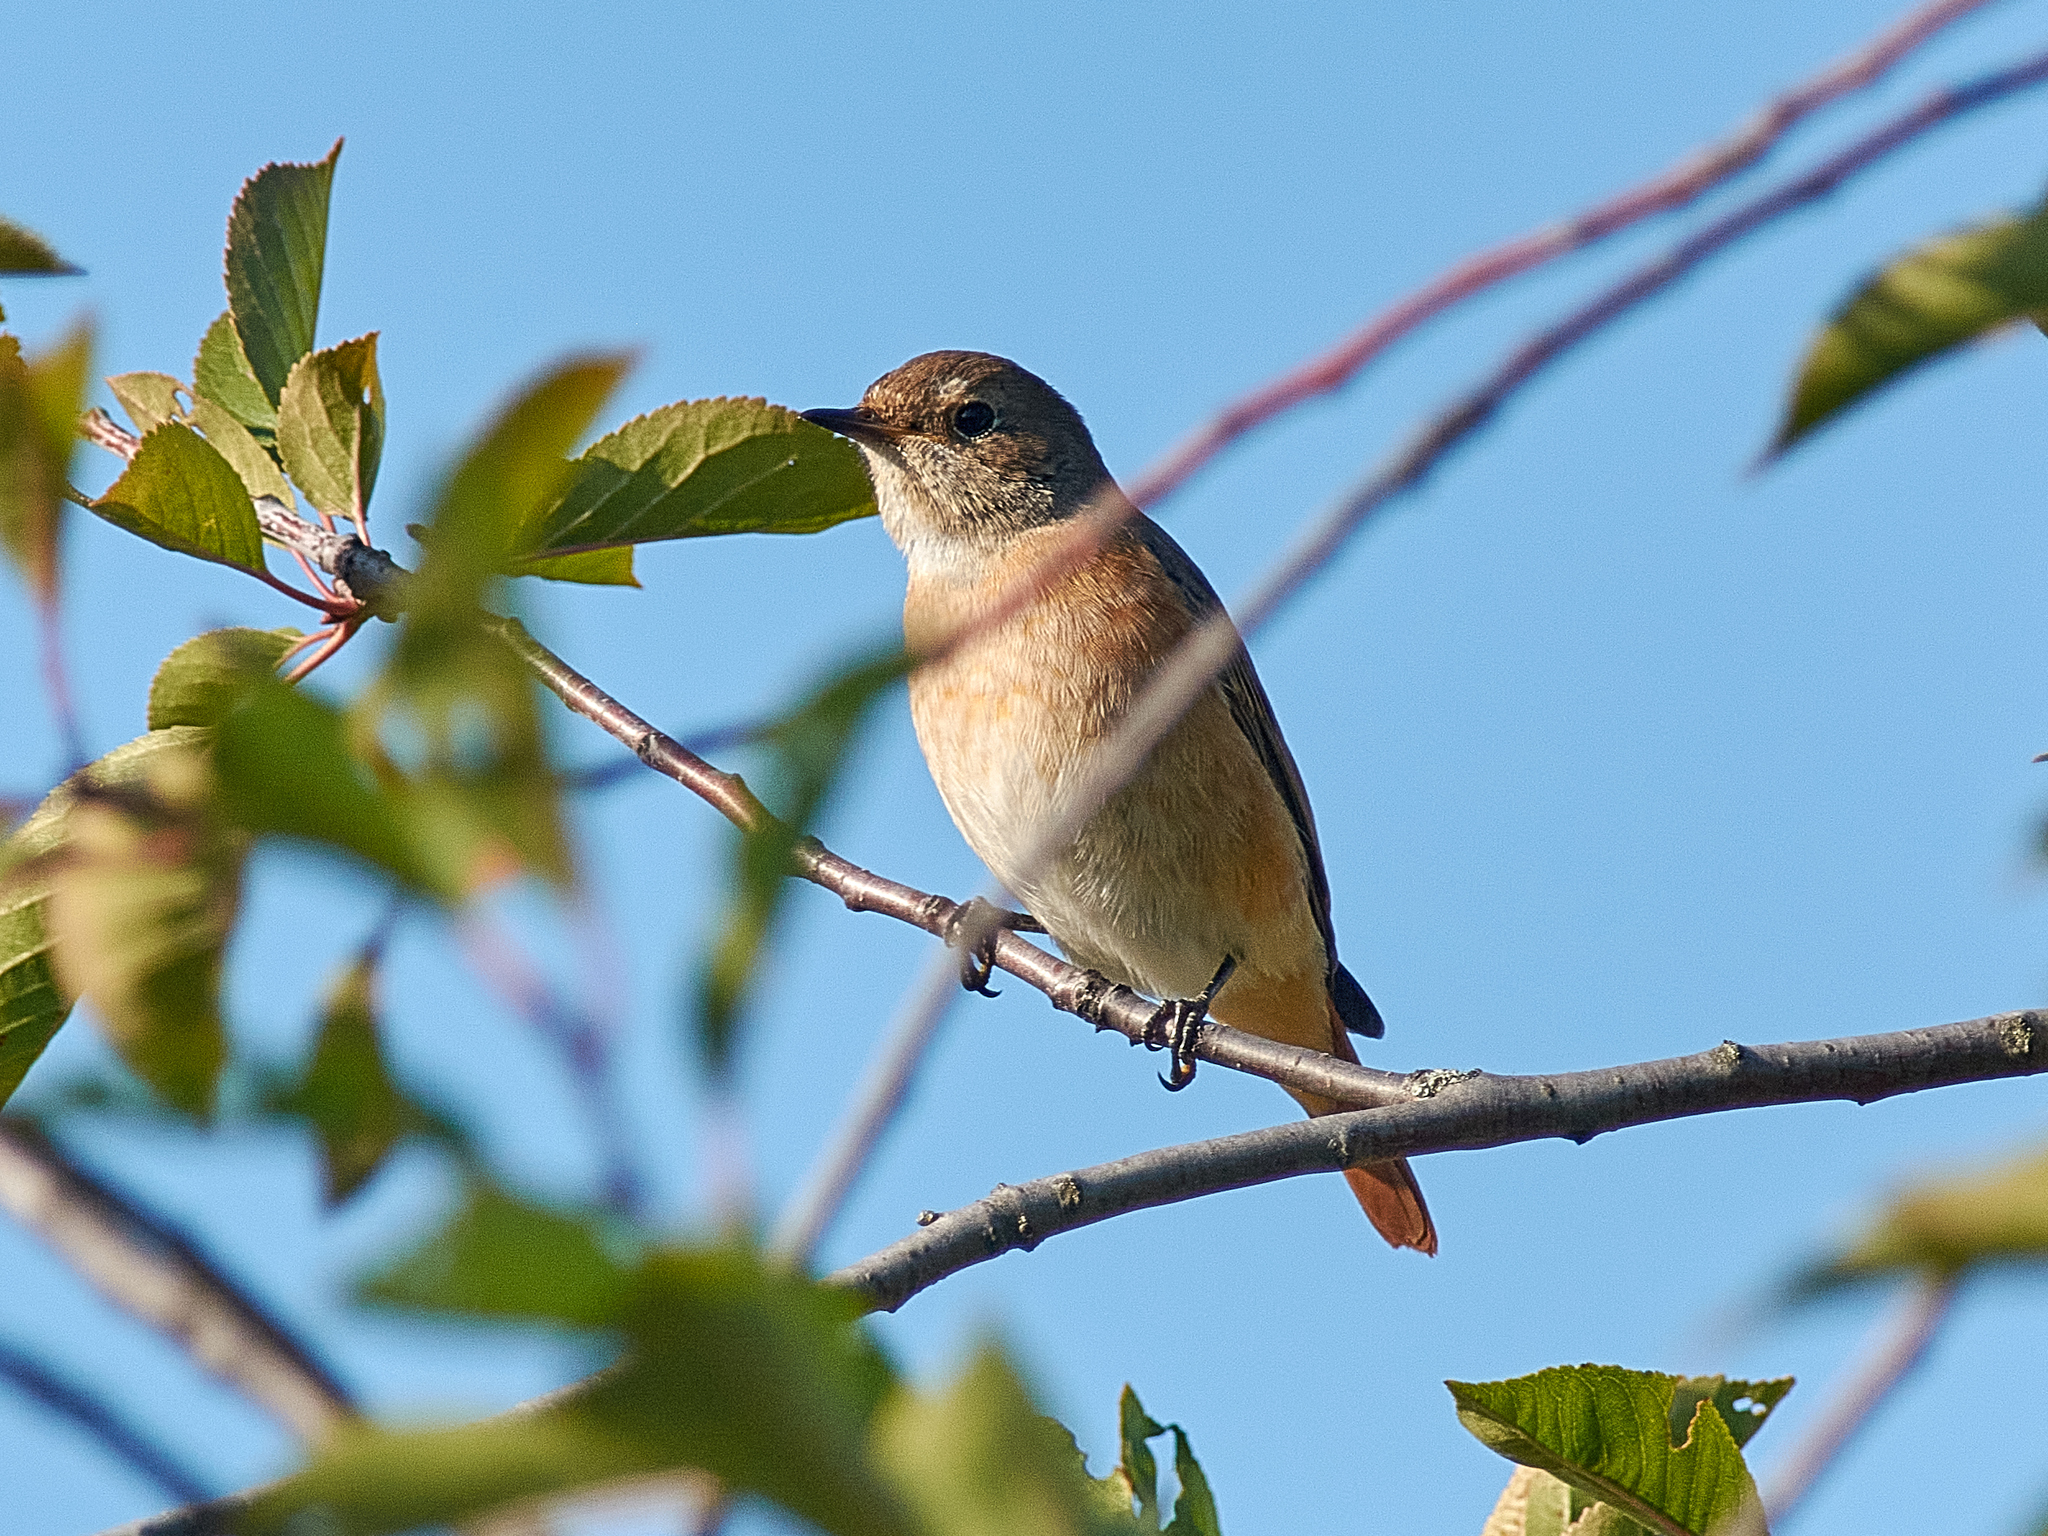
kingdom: Animalia
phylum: Chordata
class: Aves
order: Passeriformes
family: Muscicapidae
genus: Phoenicurus
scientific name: Phoenicurus phoenicurus
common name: Common redstart
